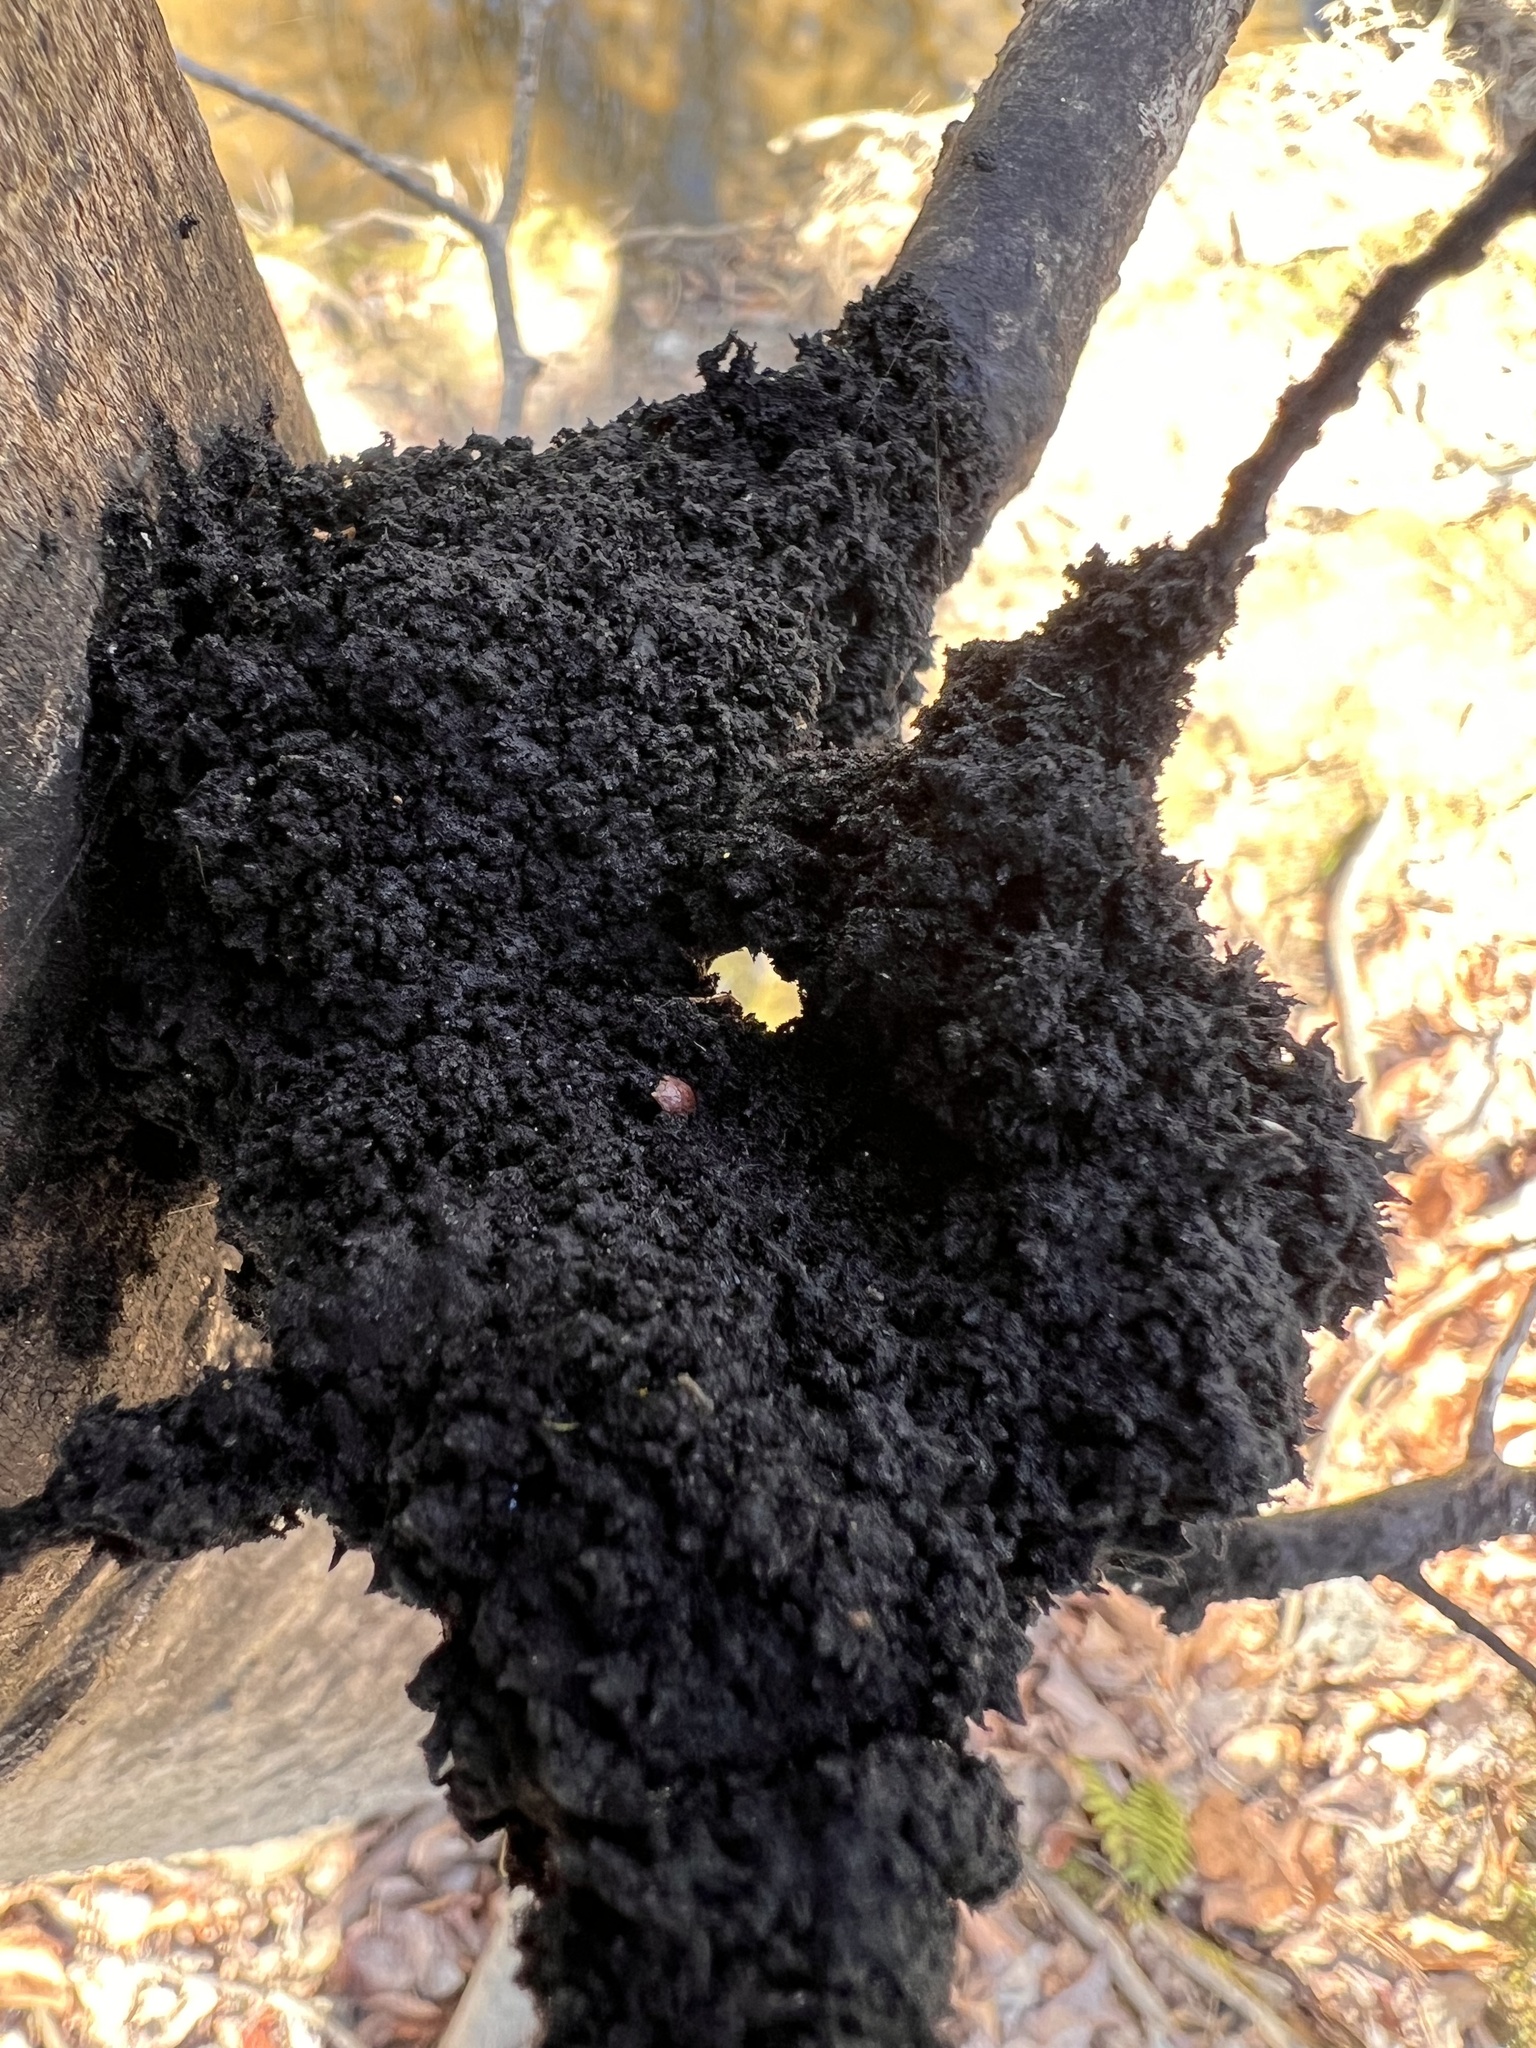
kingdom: Fungi
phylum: Ascomycota
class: Dothideomycetes
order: Capnodiales
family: Capnodiaceae
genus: Scorias
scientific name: Scorias spongiosa
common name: Black sooty mold
